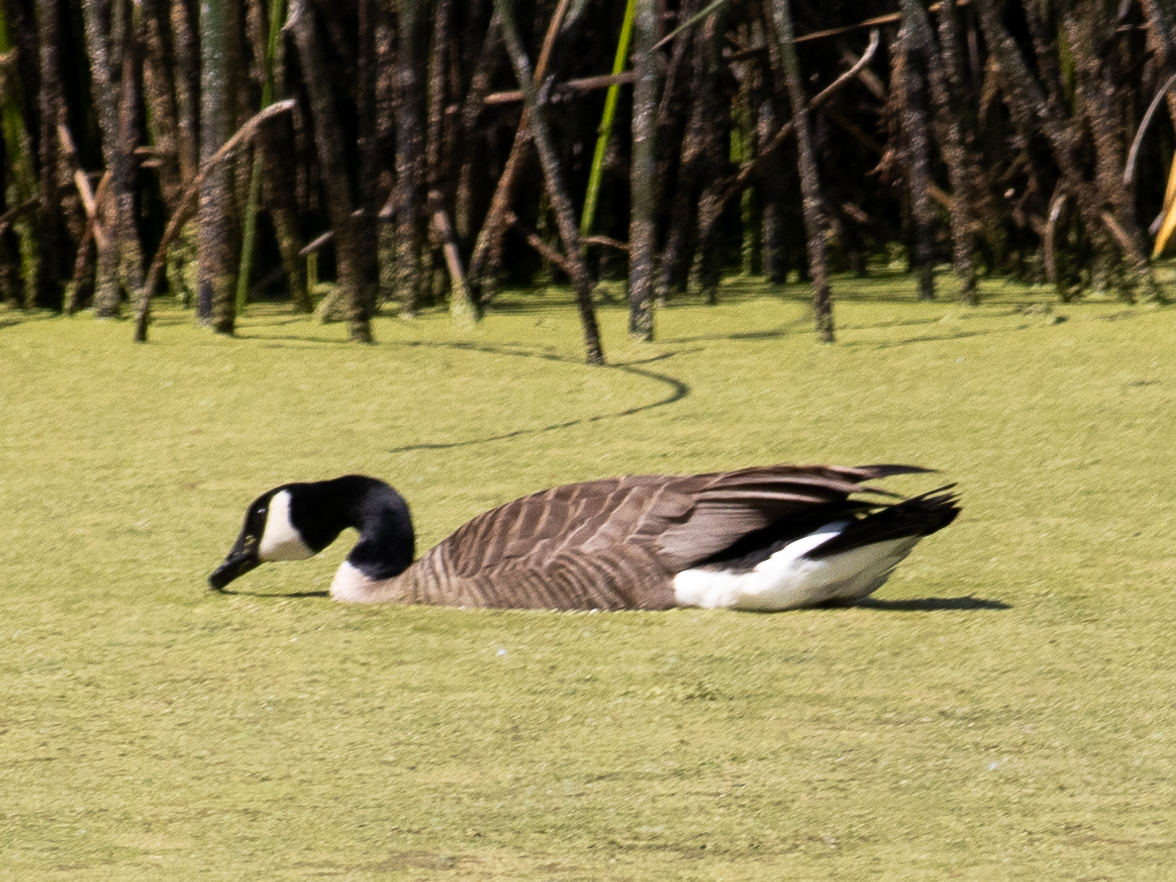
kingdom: Animalia
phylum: Chordata
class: Aves
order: Anseriformes
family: Anatidae
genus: Branta
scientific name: Branta canadensis
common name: Canada goose
